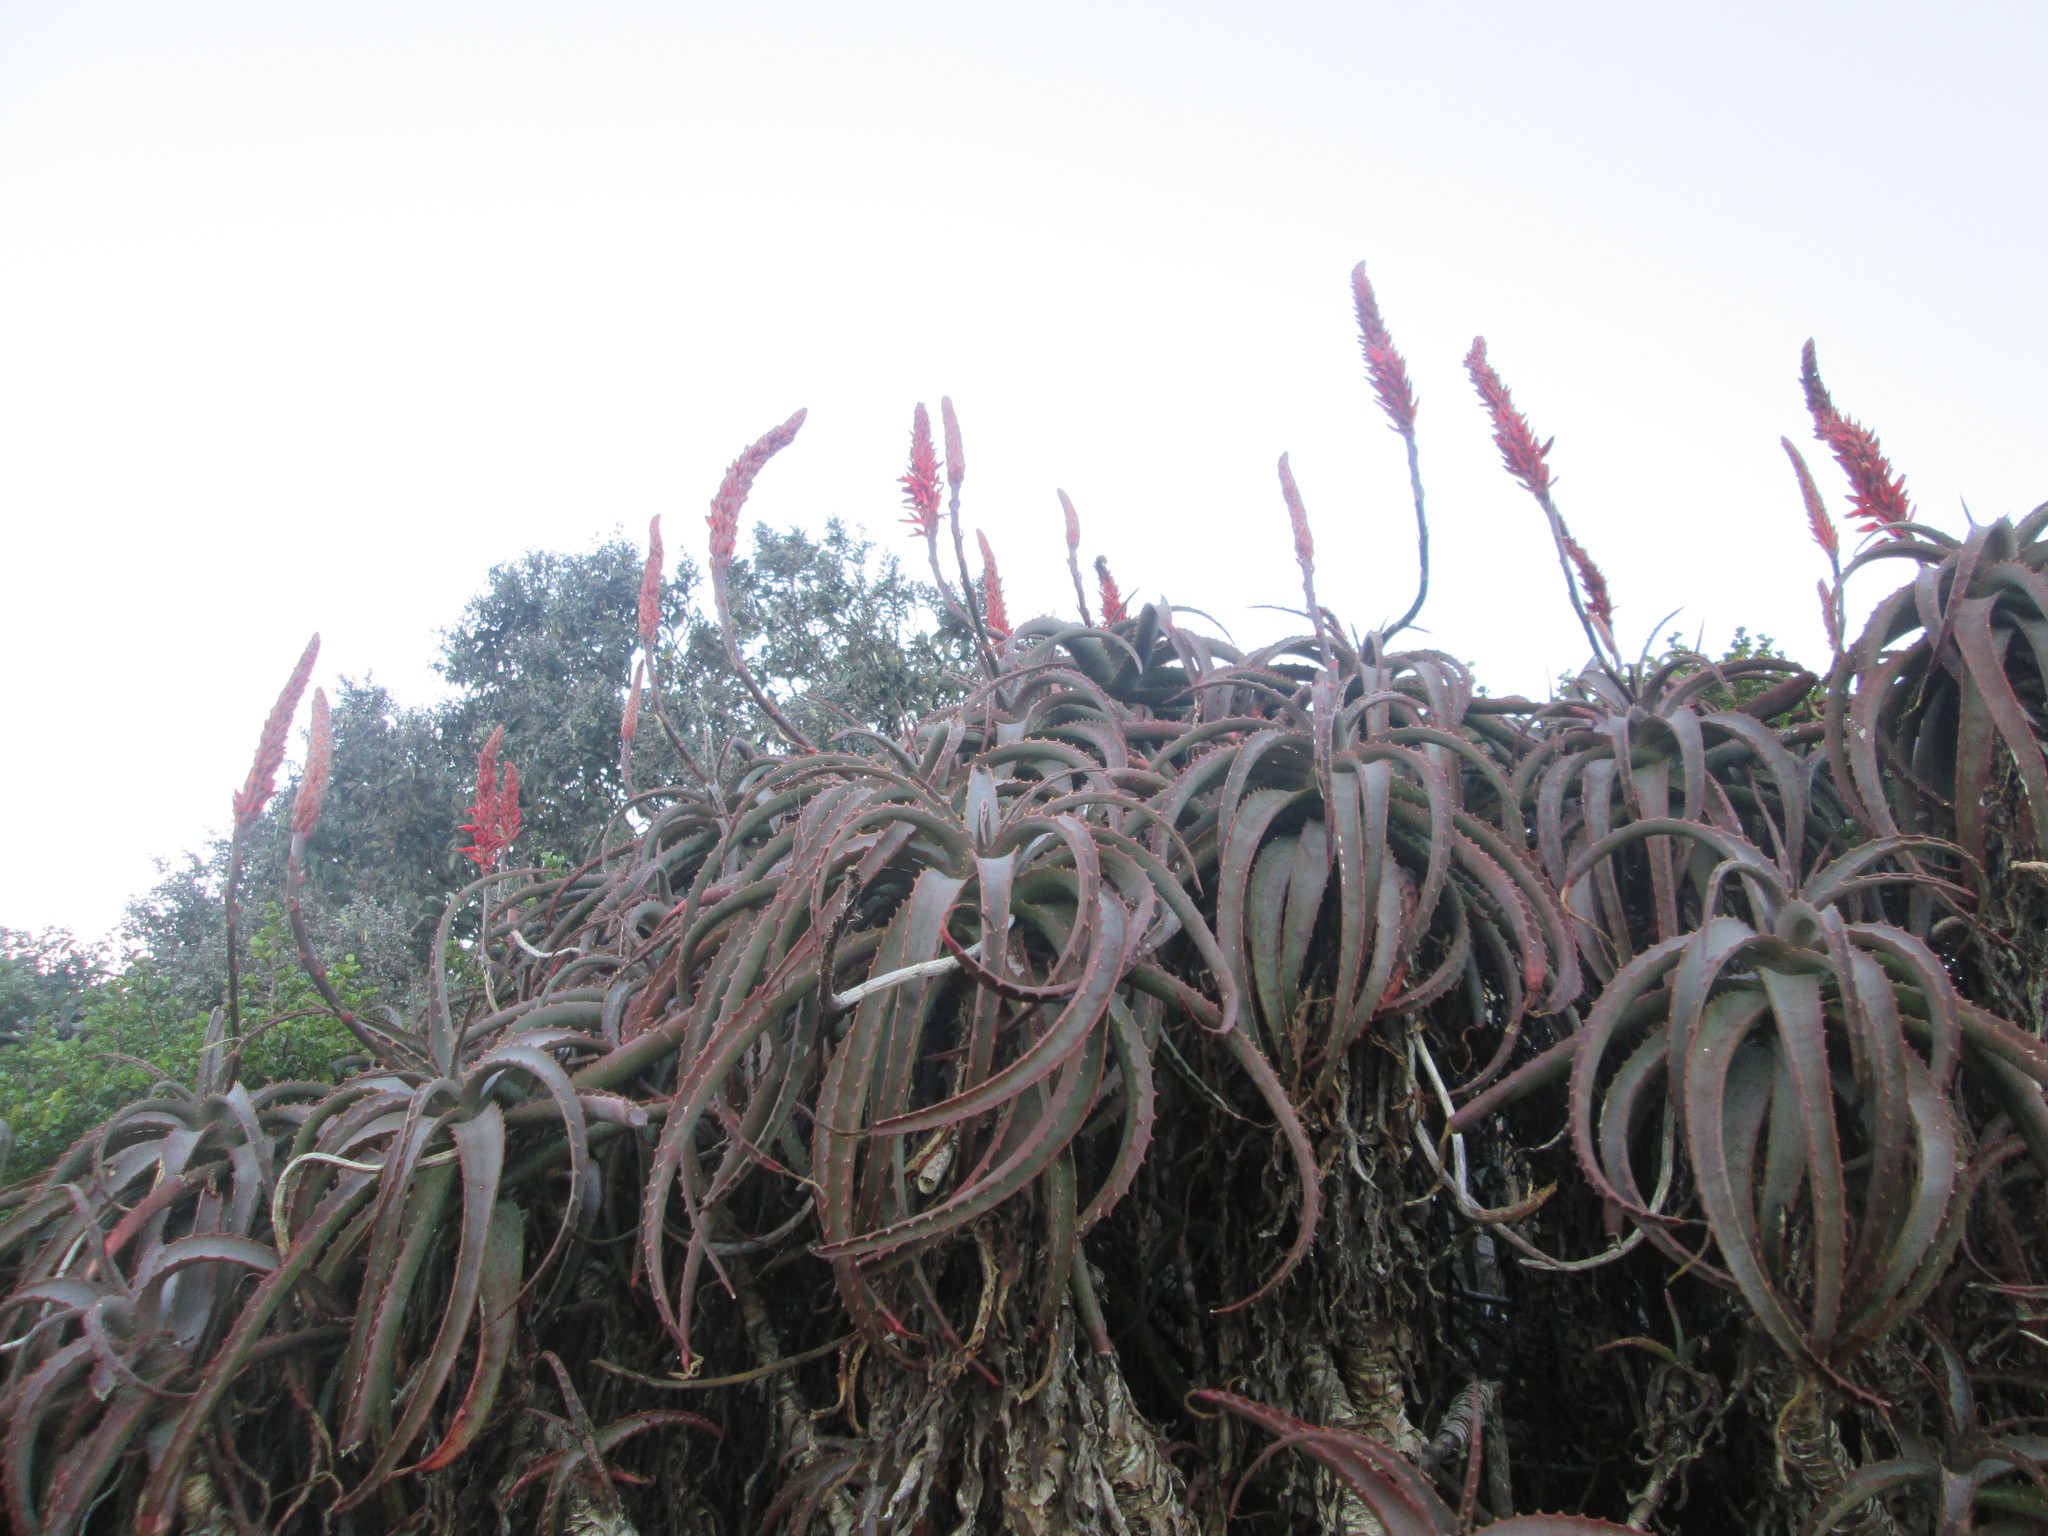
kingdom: Plantae
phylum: Tracheophyta
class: Liliopsida
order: Asparagales
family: Asphodelaceae
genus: Aloe
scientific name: Aloe arborescens
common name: Candelabra aloe
